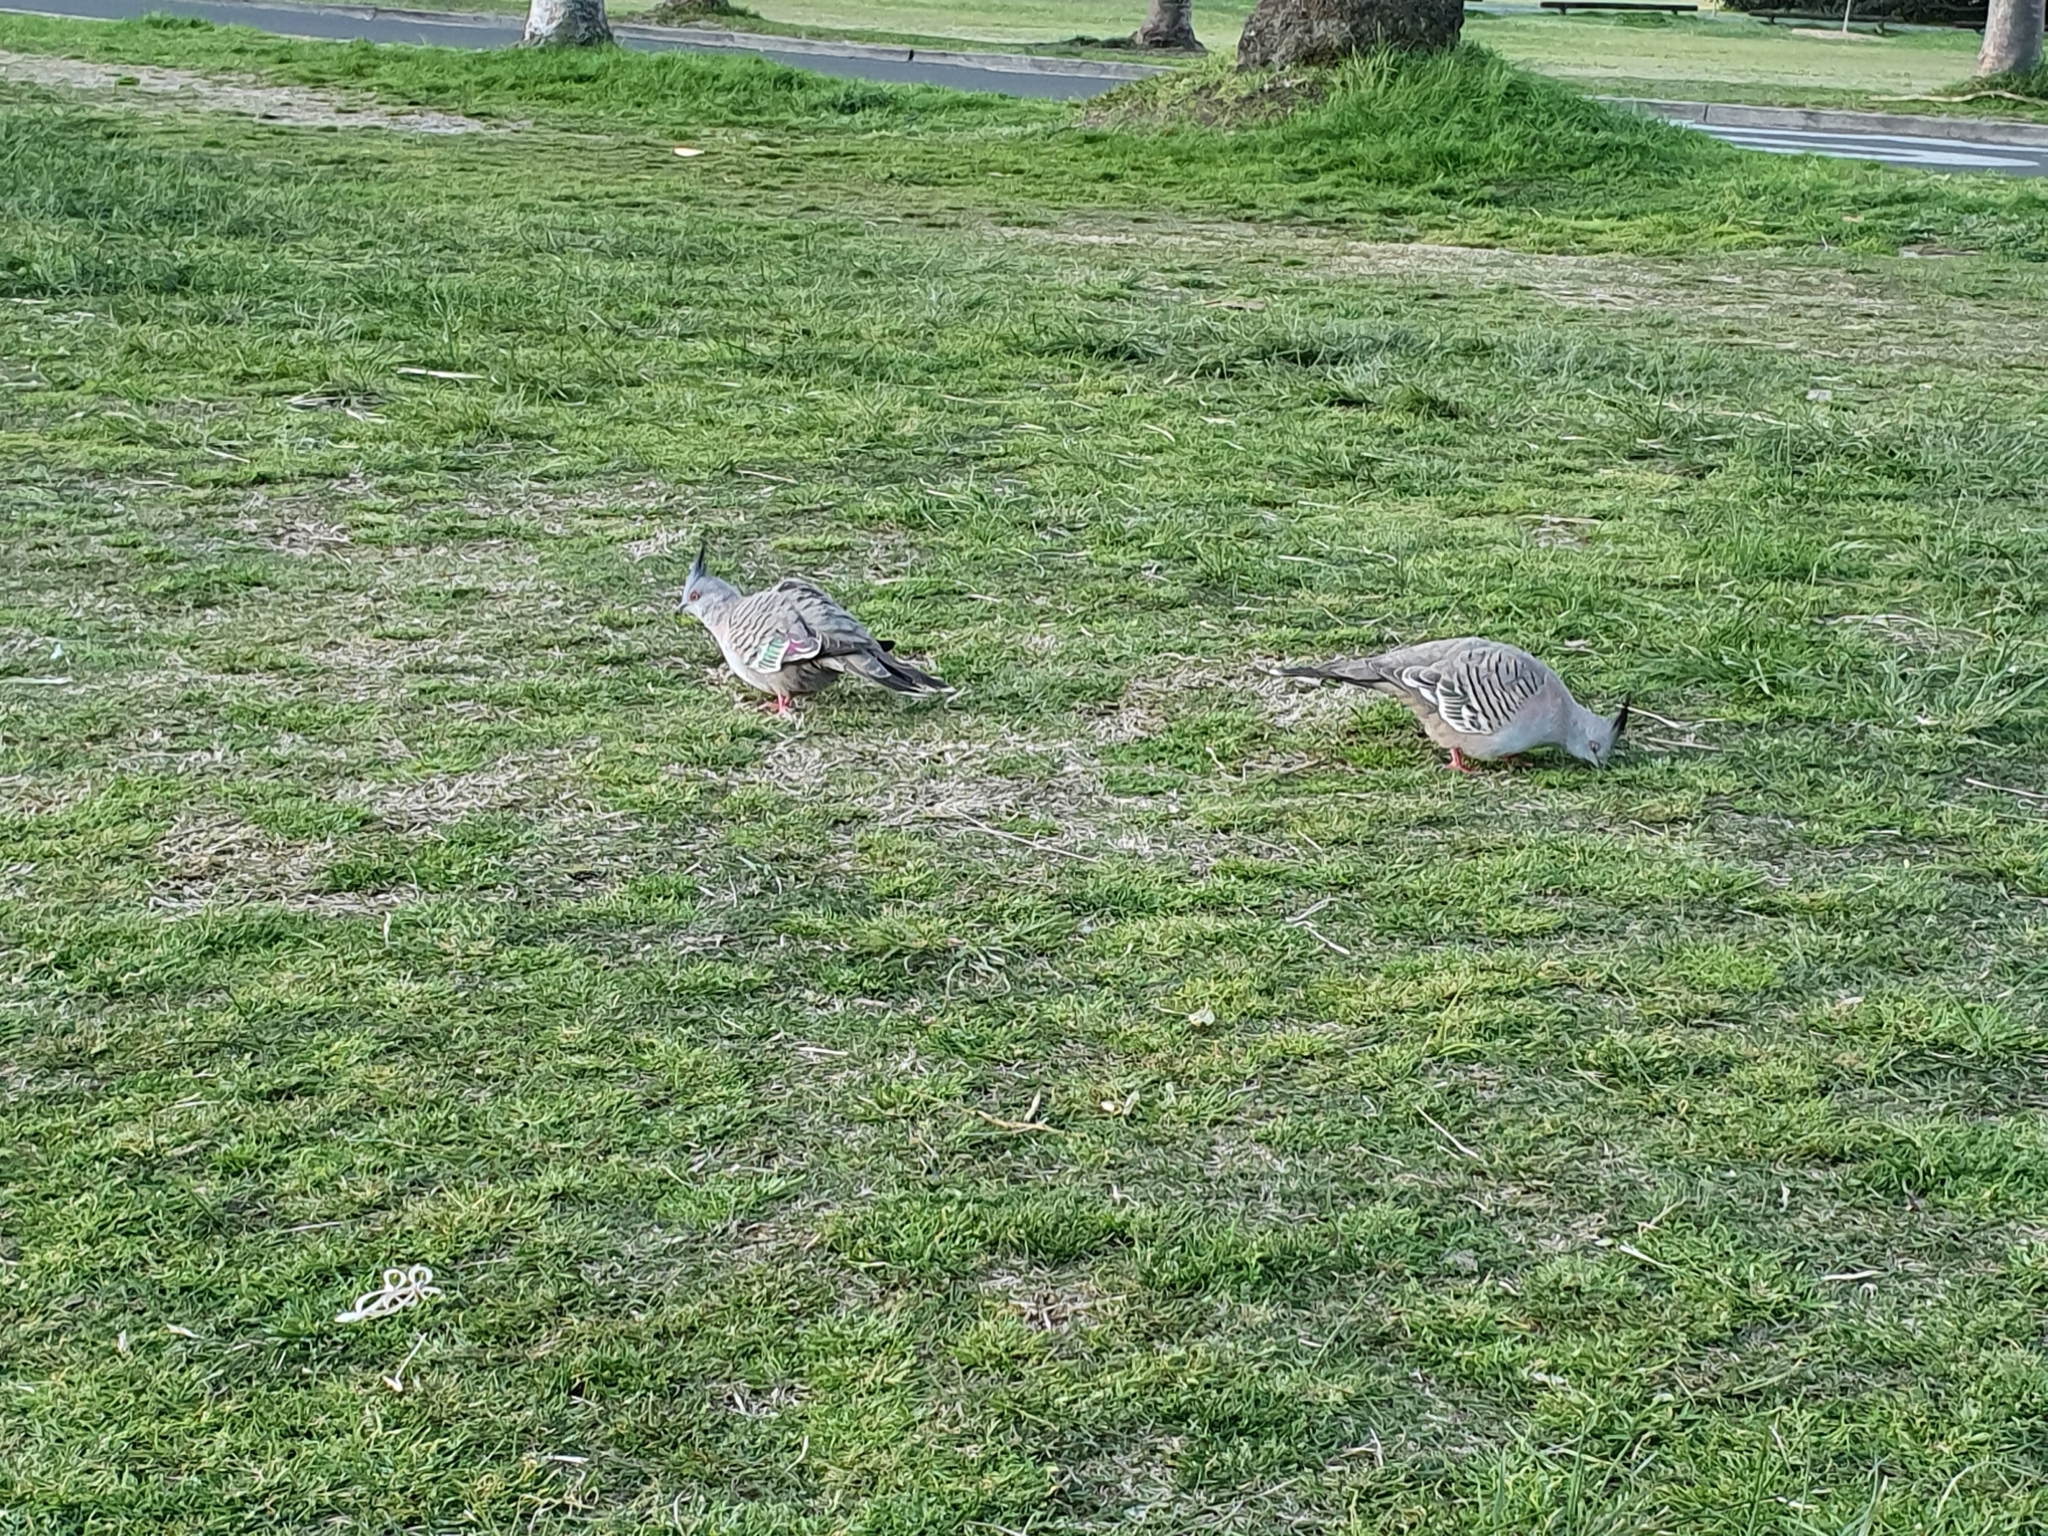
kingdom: Animalia
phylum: Chordata
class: Aves
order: Columbiformes
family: Columbidae
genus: Ocyphaps
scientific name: Ocyphaps lophotes
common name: Crested pigeon
